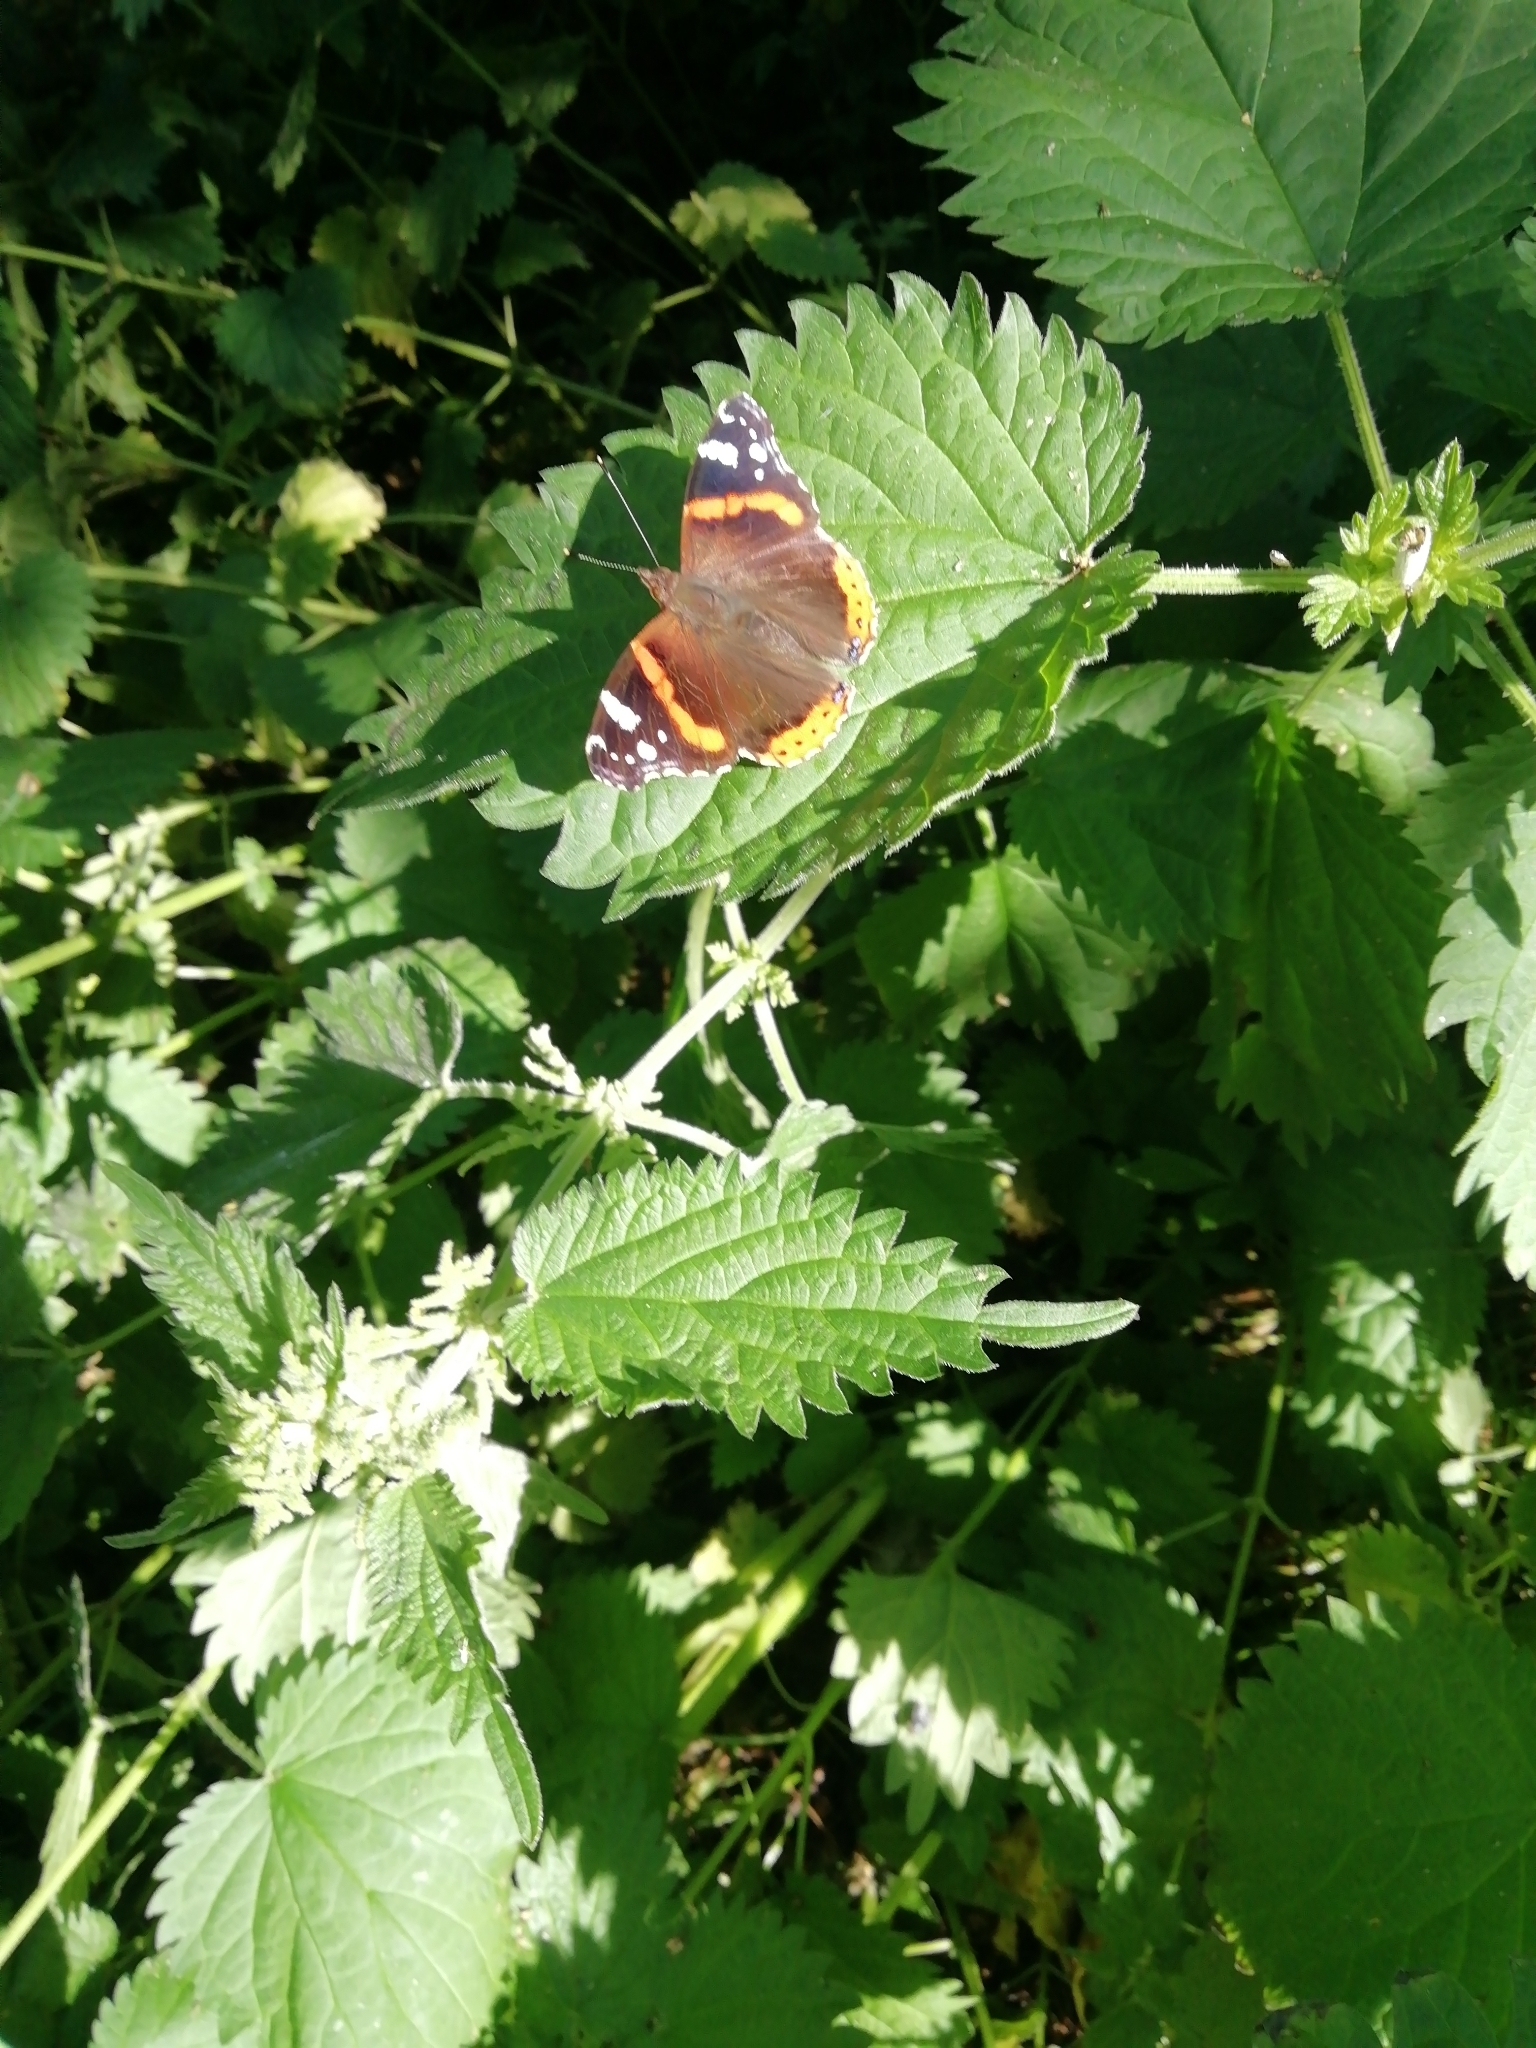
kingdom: Animalia
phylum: Arthropoda
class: Insecta
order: Lepidoptera
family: Nymphalidae
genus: Vanessa
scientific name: Vanessa atalanta
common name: Red admiral
